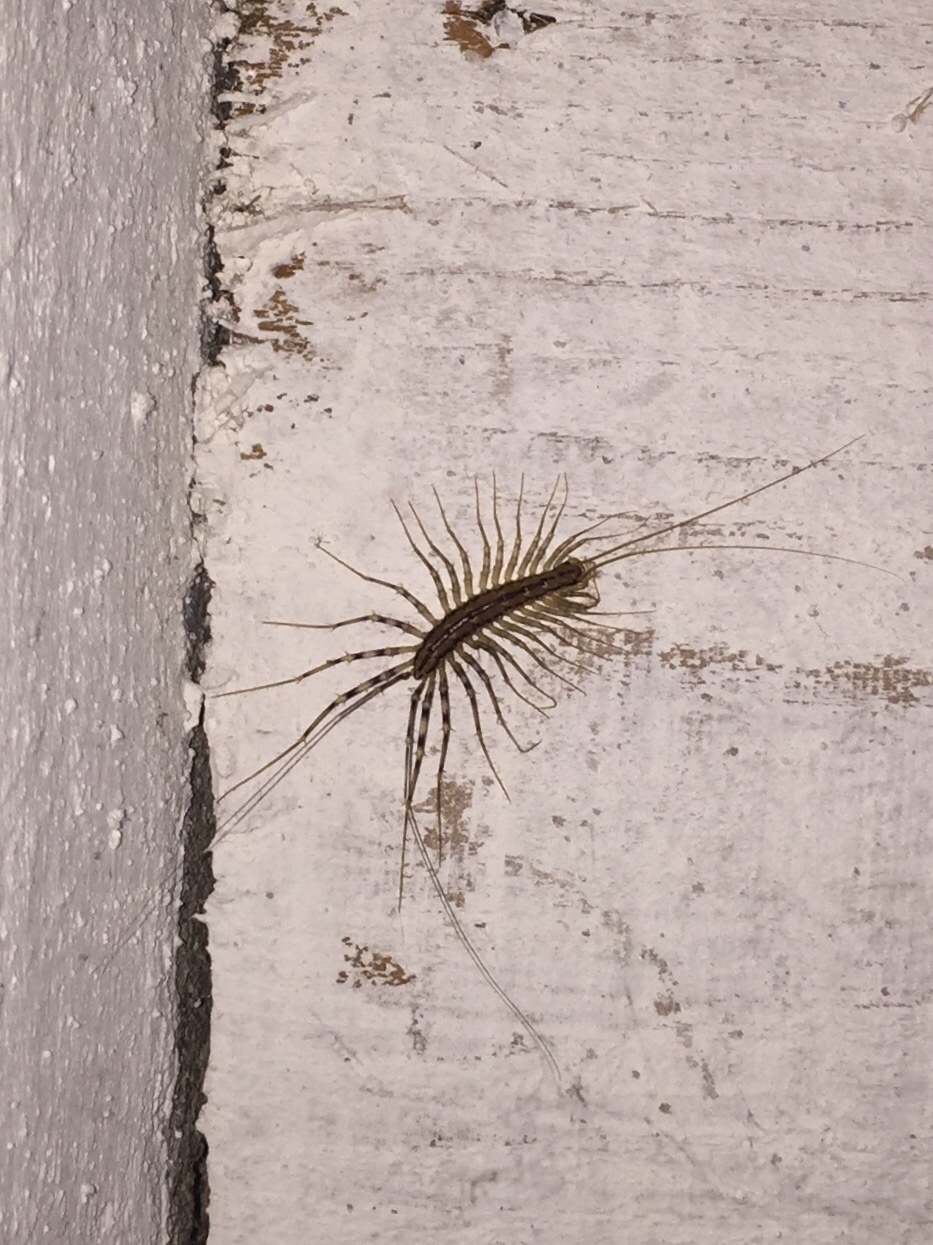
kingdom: Animalia
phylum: Arthropoda
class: Chilopoda
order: Scutigeromorpha
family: Scutigeridae
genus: Scutigera
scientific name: Scutigera coleoptrata
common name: House centipede
